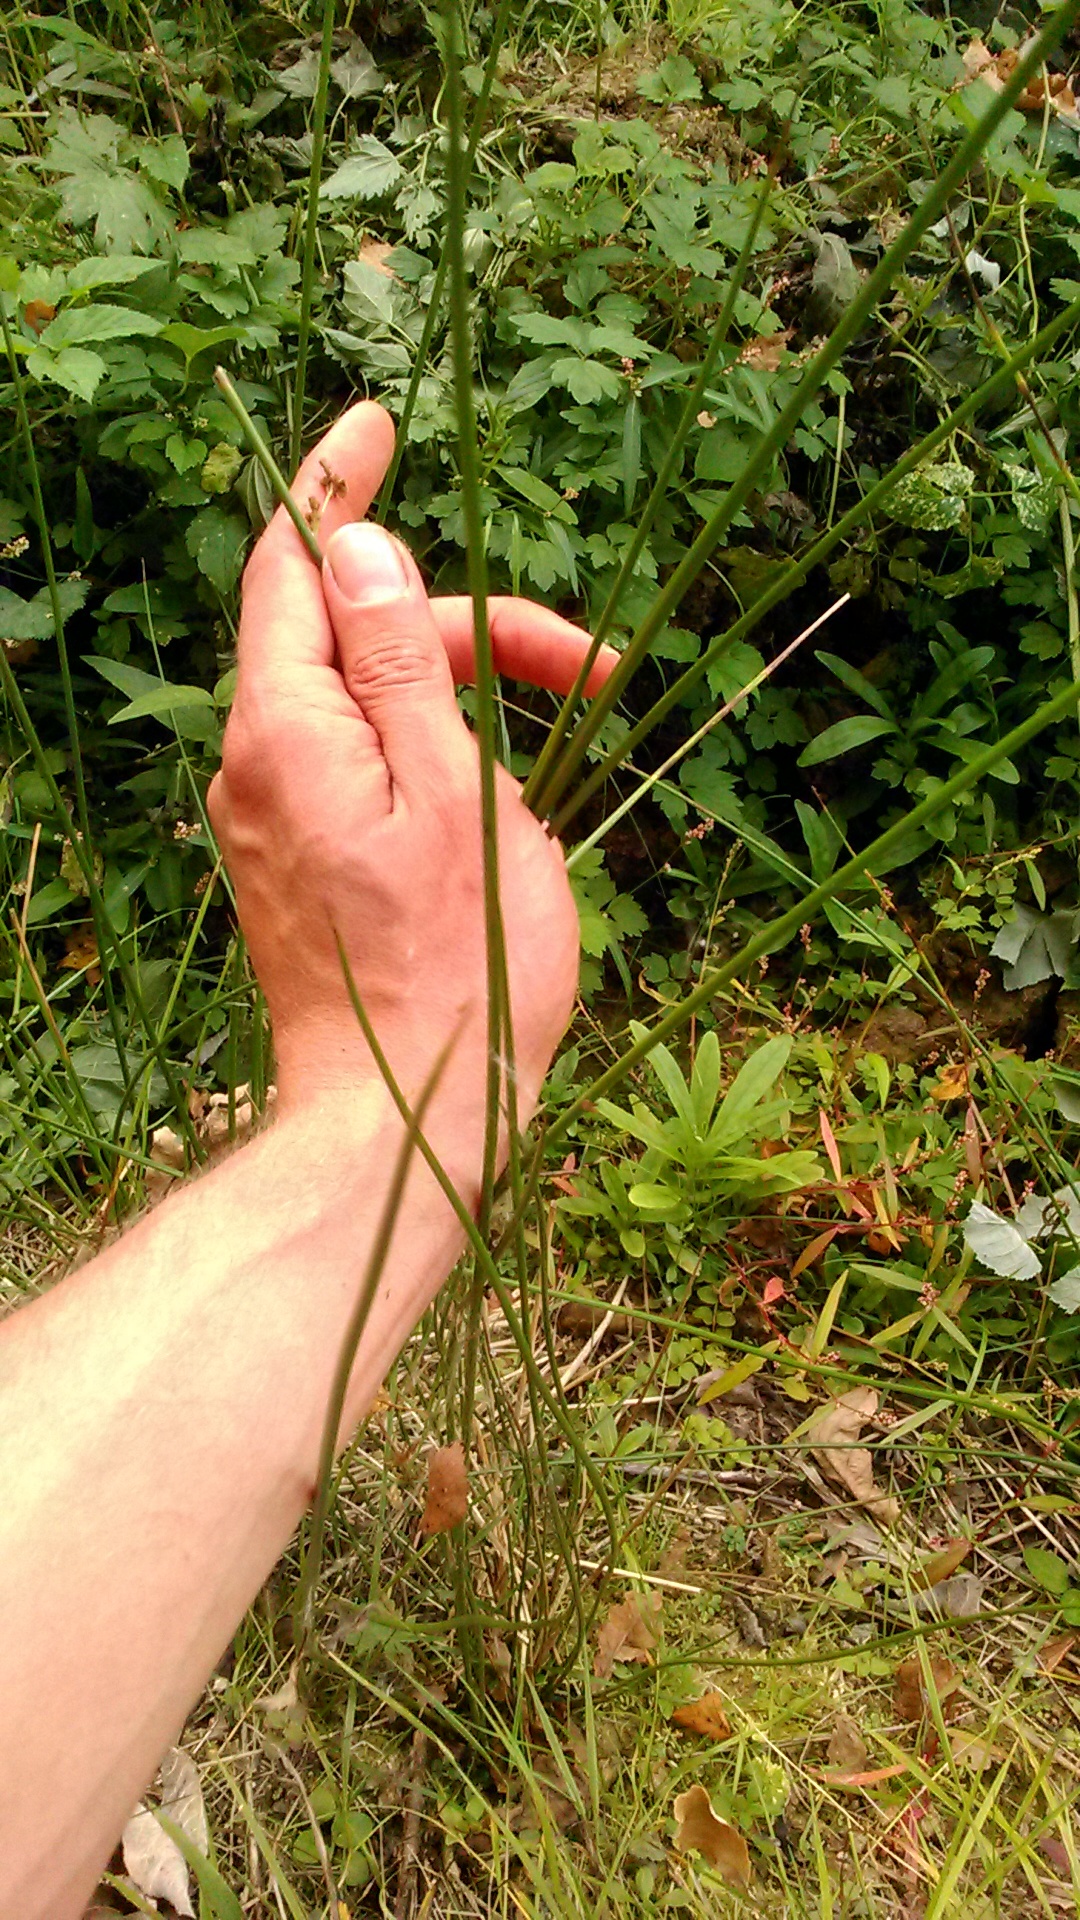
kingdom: Plantae
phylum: Tracheophyta
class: Liliopsida
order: Poales
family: Juncaceae
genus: Juncus
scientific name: Juncus effusus
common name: Soft rush
